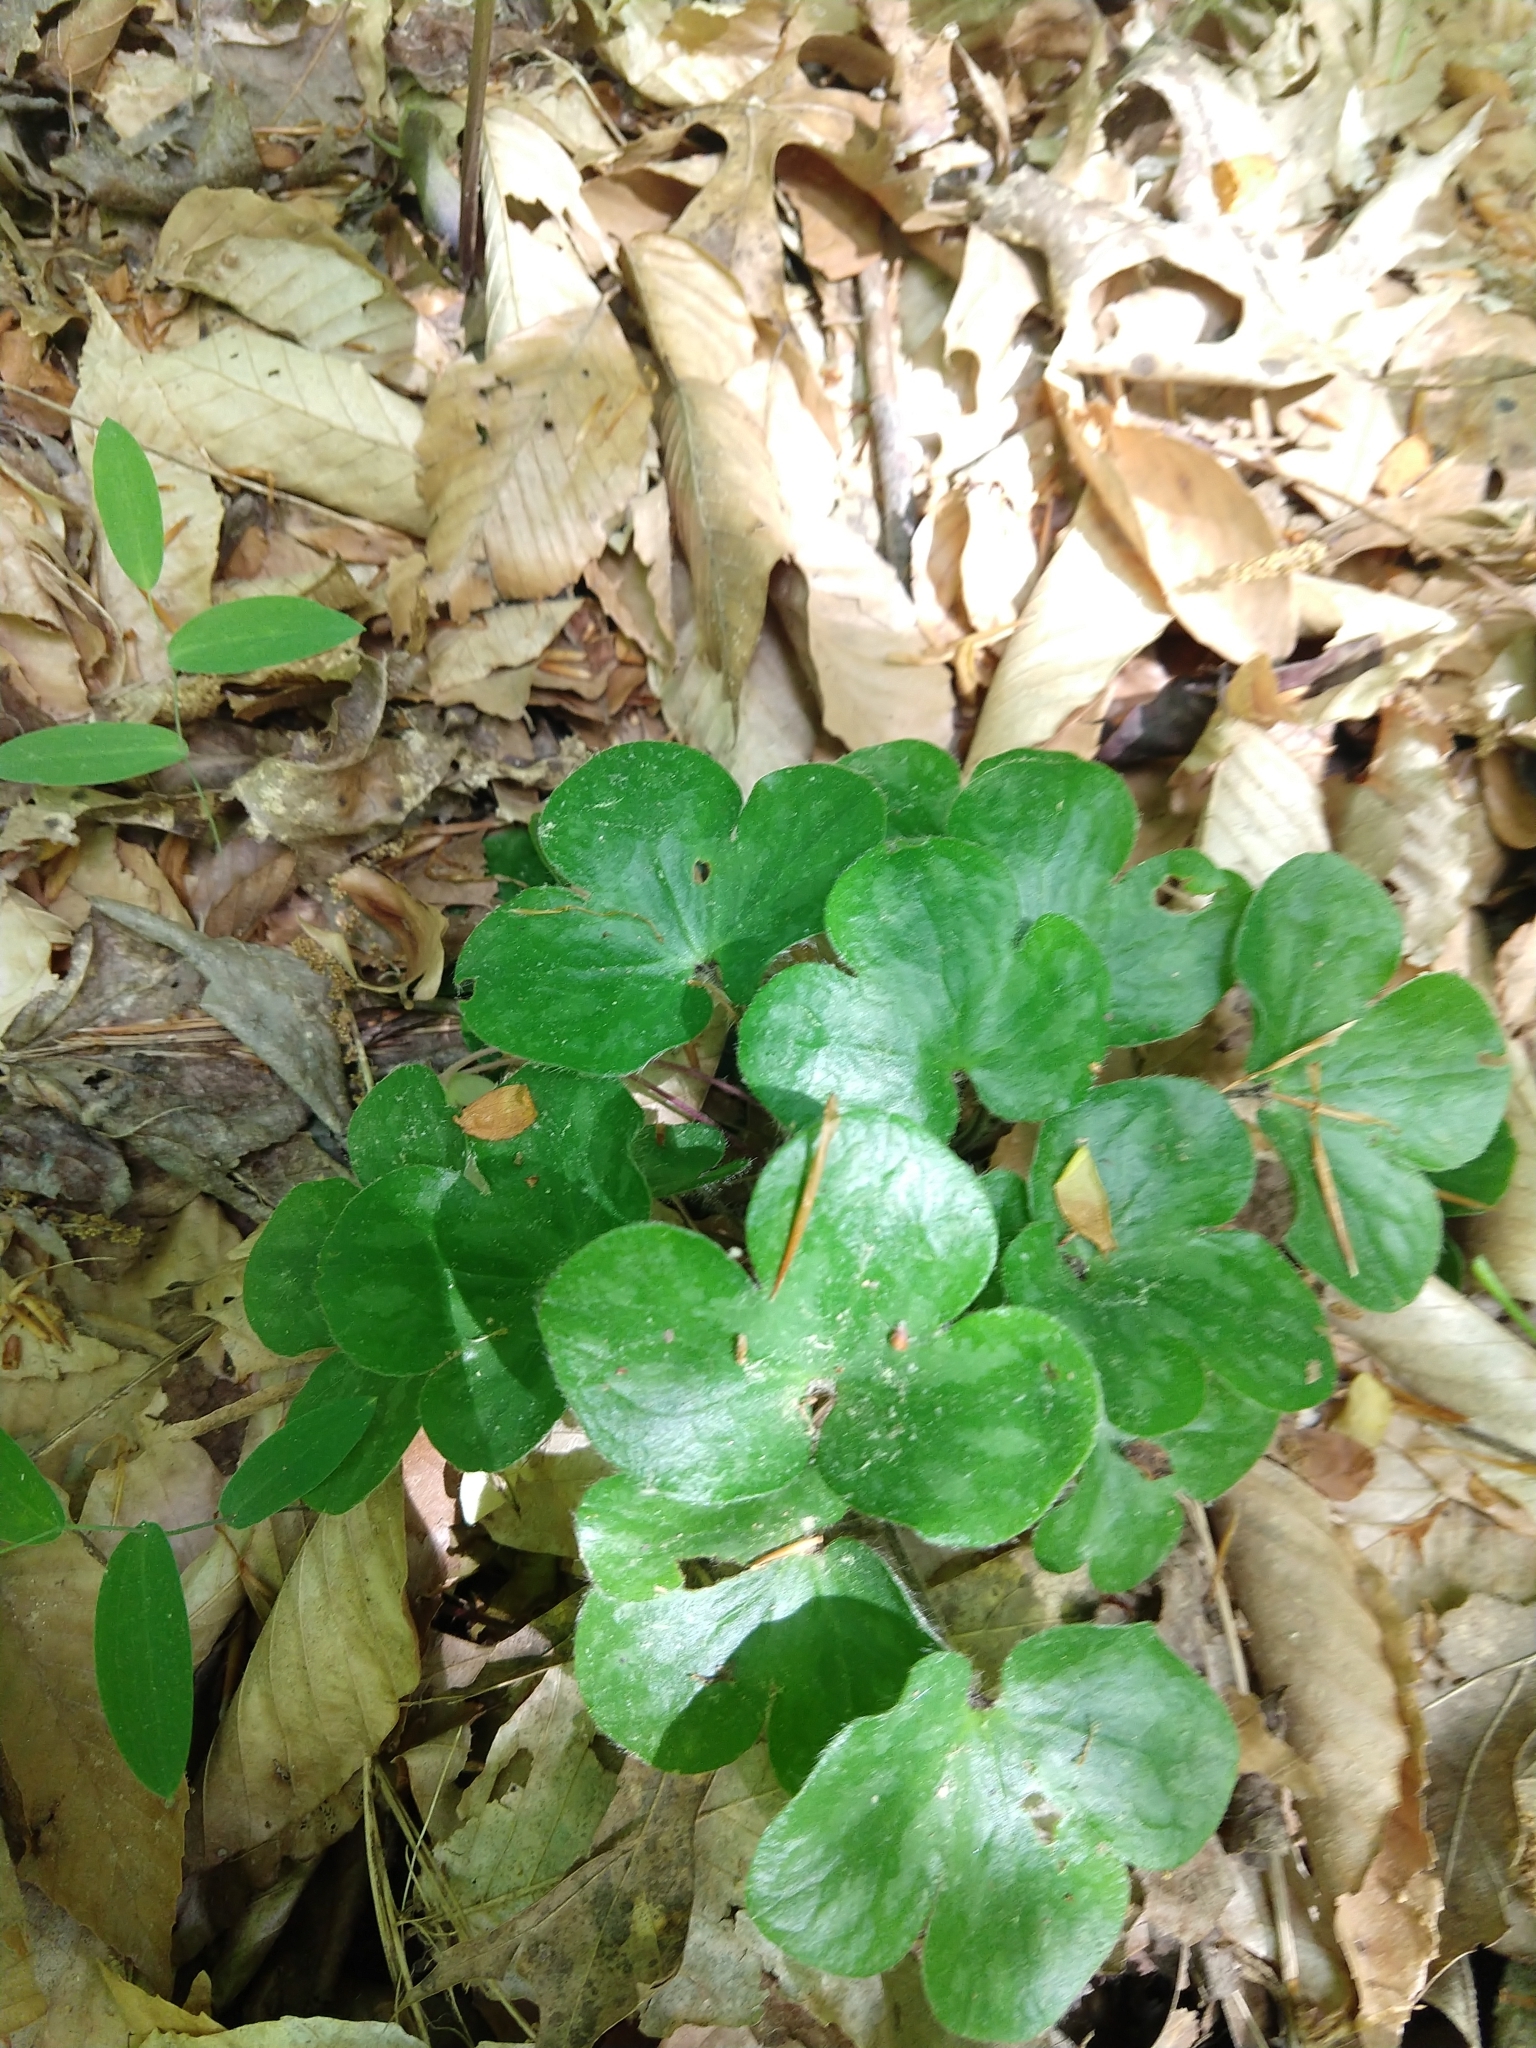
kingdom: Plantae
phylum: Tracheophyta
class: Magnoliopsida
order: Ranunculales
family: Ranunculaceae
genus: Hepatica
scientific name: Hepatica americana
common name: American hepatica
